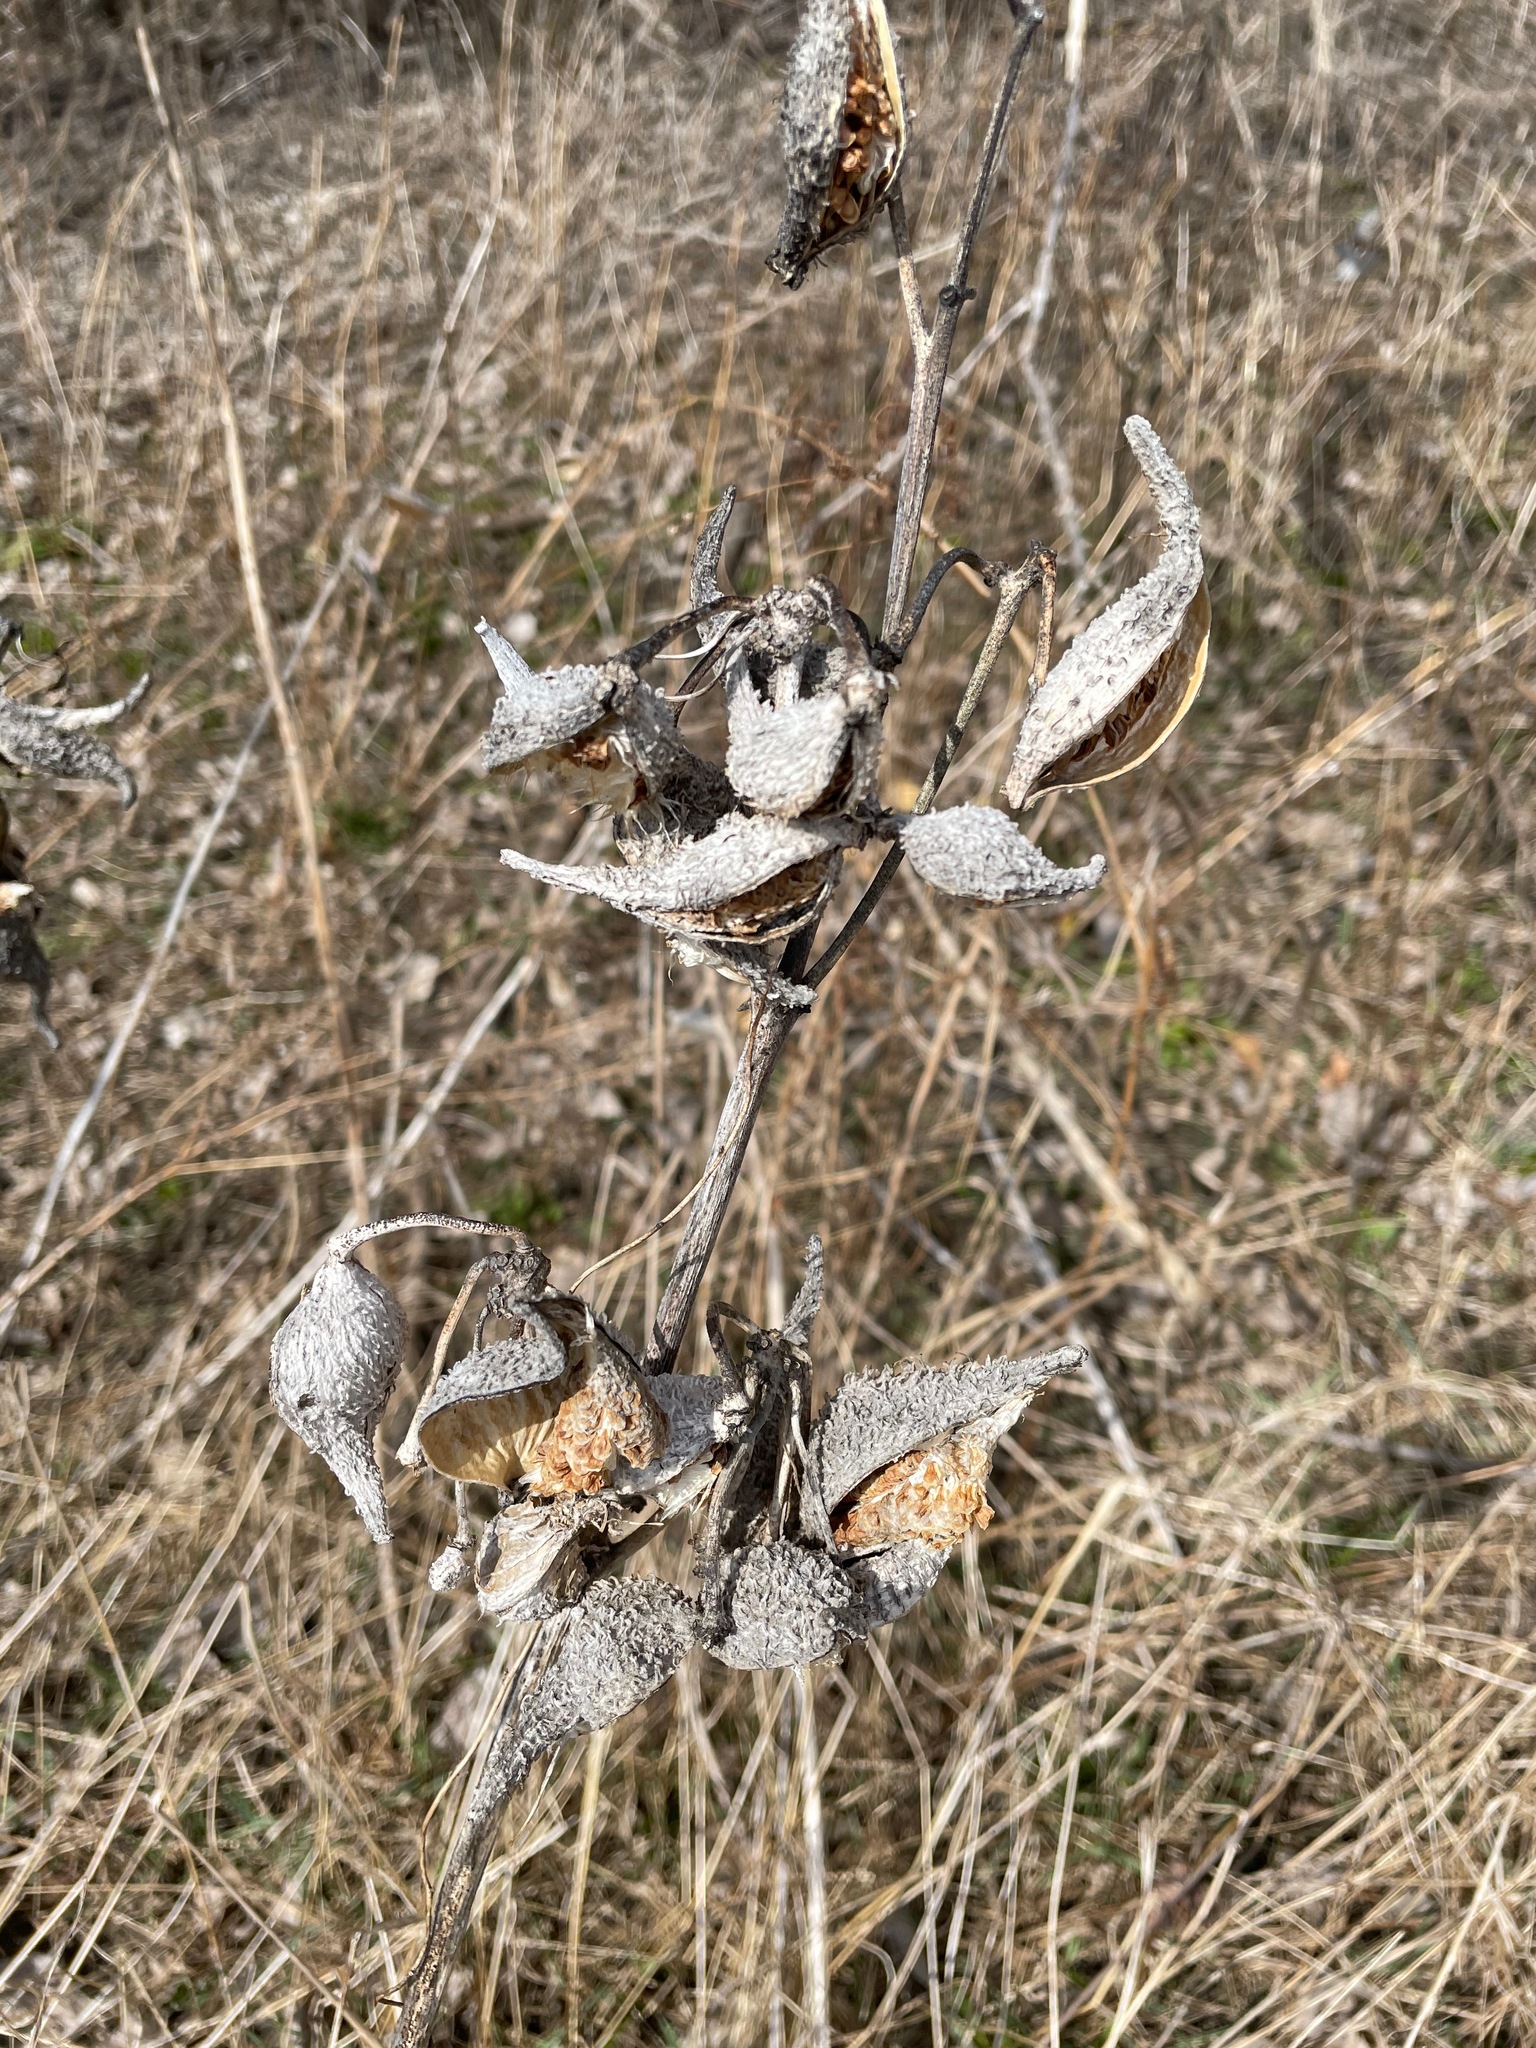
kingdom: Plantae
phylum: Tracheophyta
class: Magnoliopsida
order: Gentianales
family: Apocynaceae
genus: Asclepias
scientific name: Asclepias syriaca
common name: Common milkweed
